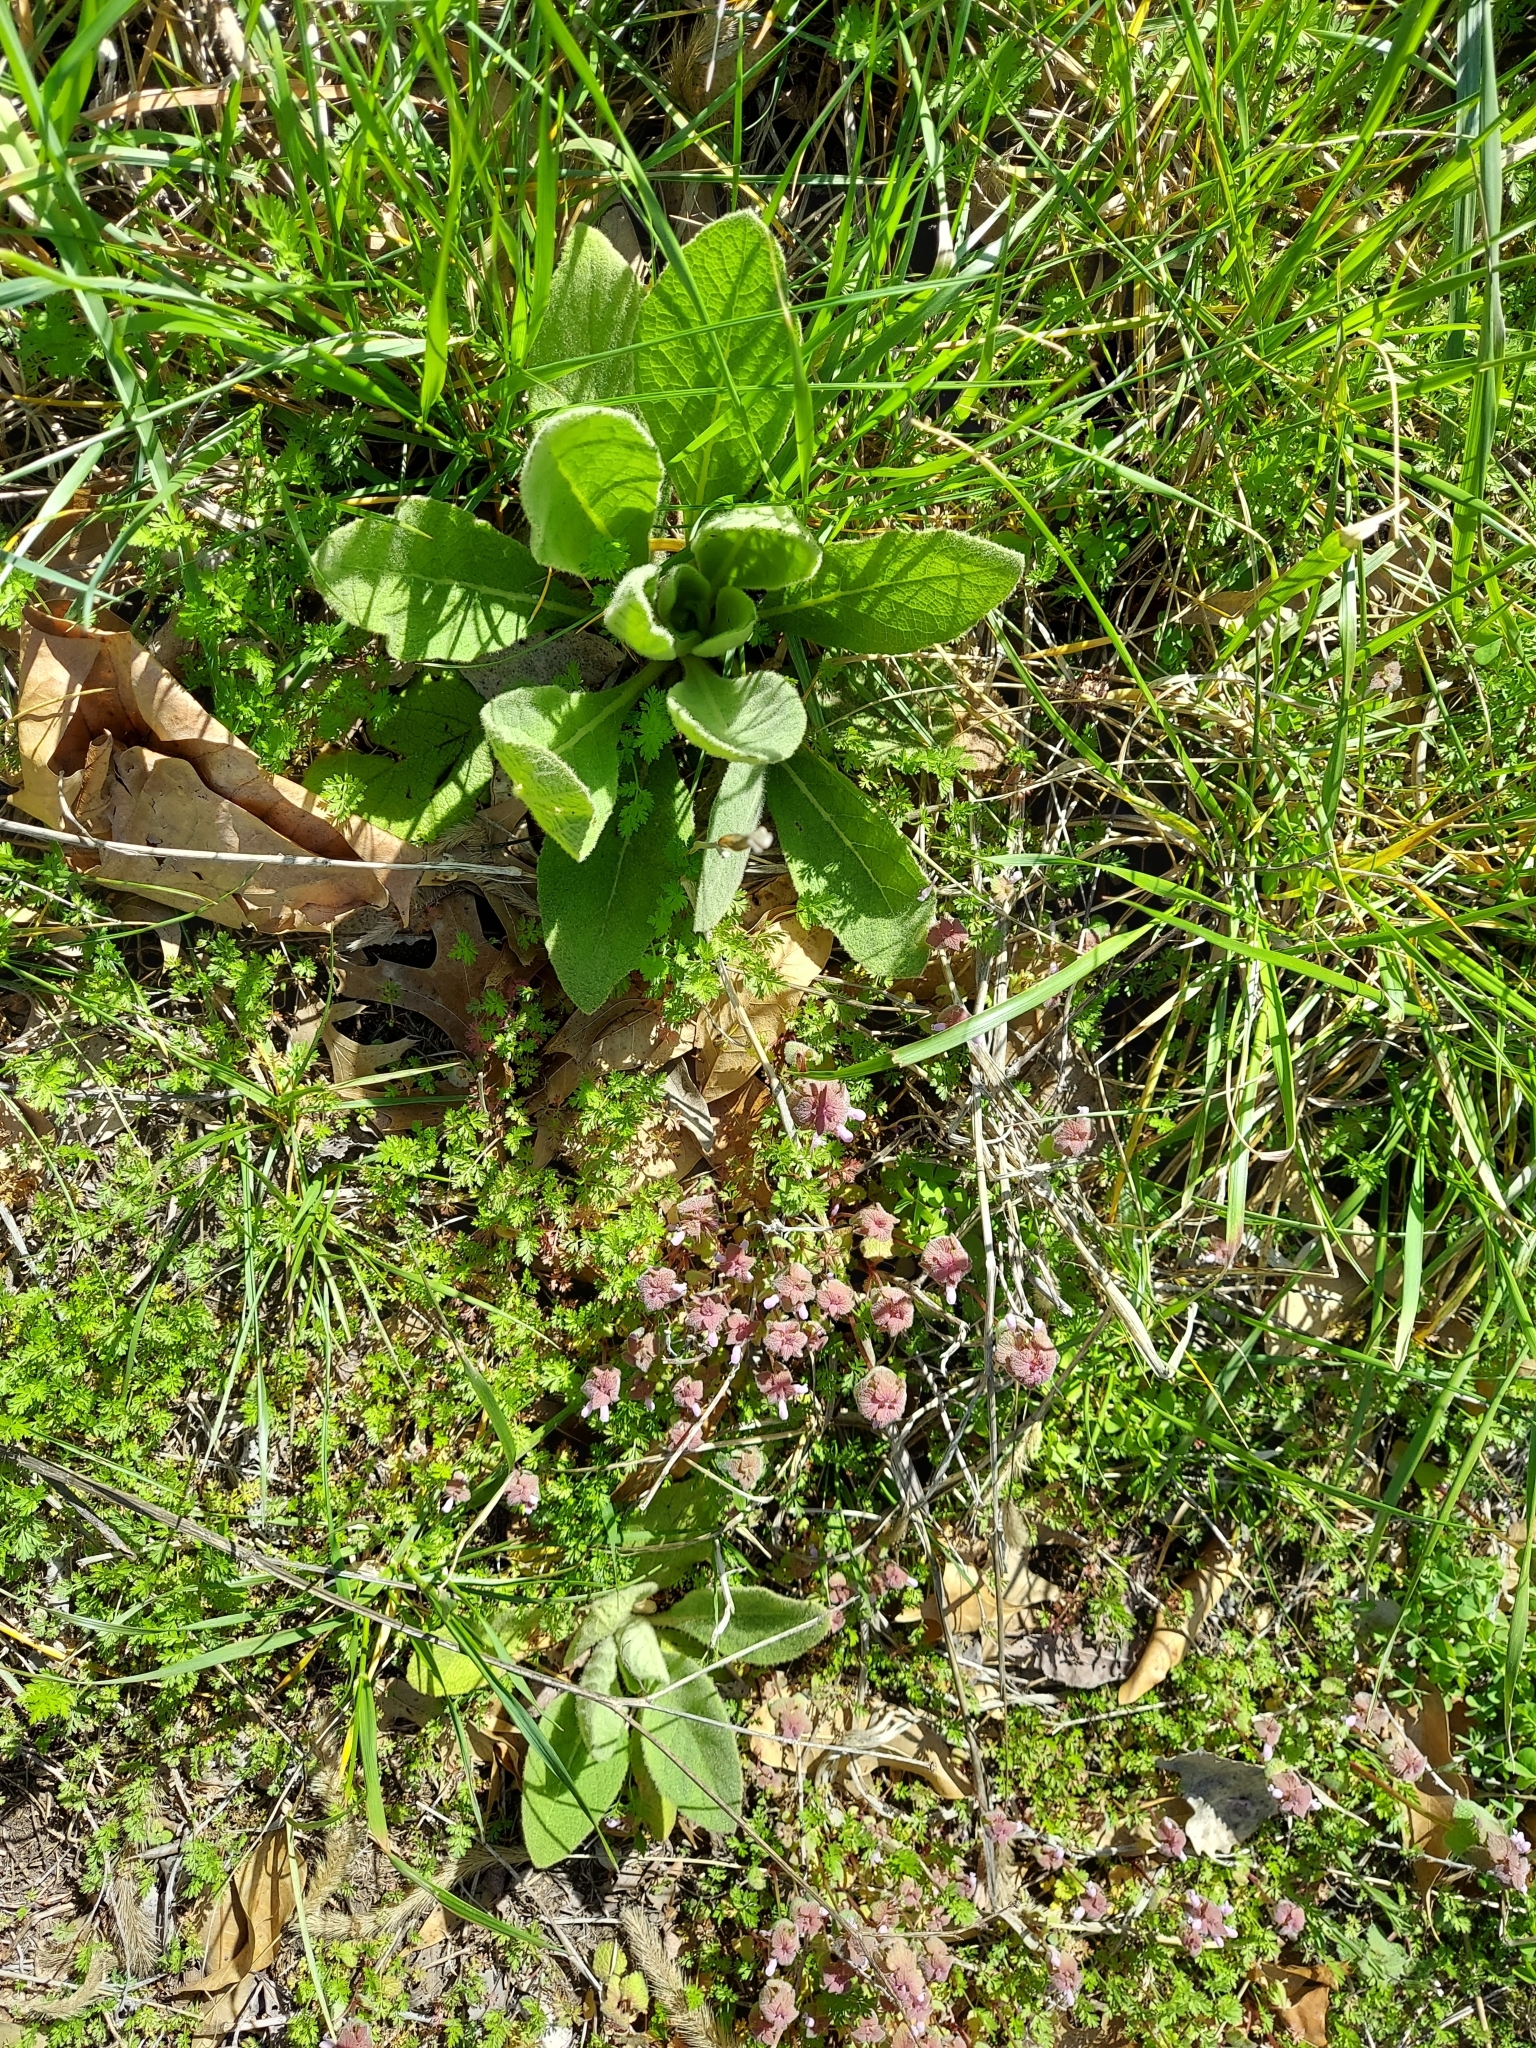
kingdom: Plantae
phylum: Tracheophyta
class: Magnoliopsida
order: Lamiales
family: Scrophulariaceae
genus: Verbascum
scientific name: Verbascum thapsus
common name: Common mullein
